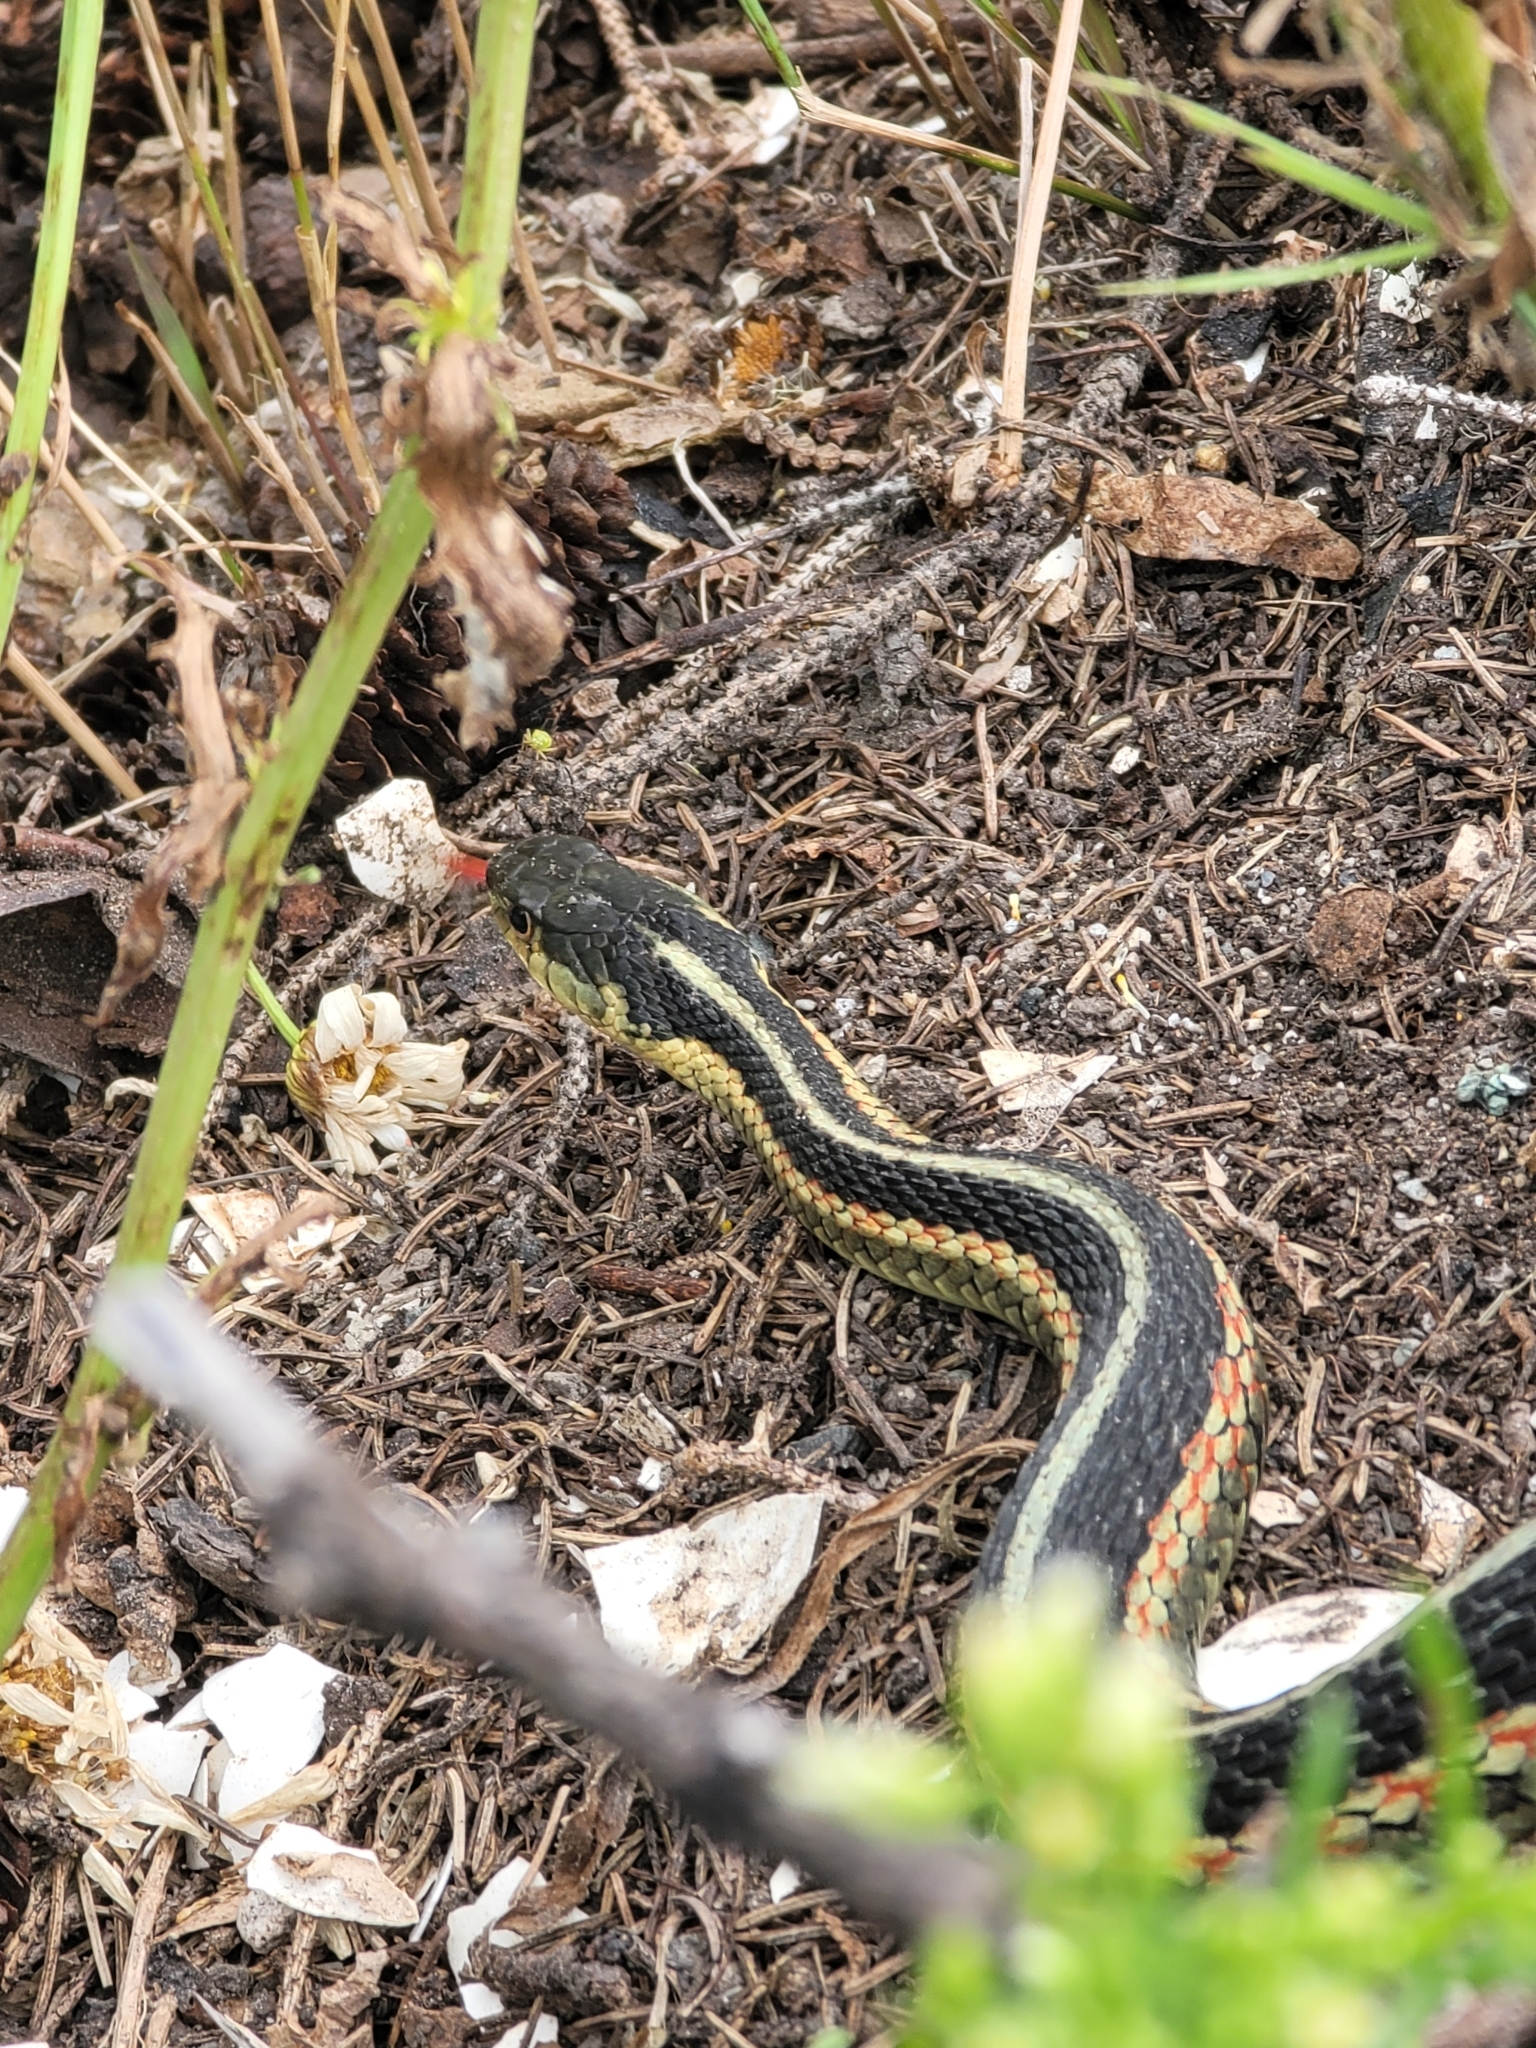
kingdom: Animalia
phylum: Chordata
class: Squamata
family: Colubridae
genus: Thamnophis
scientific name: Thamnophis sirtalis
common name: Common garter snake
